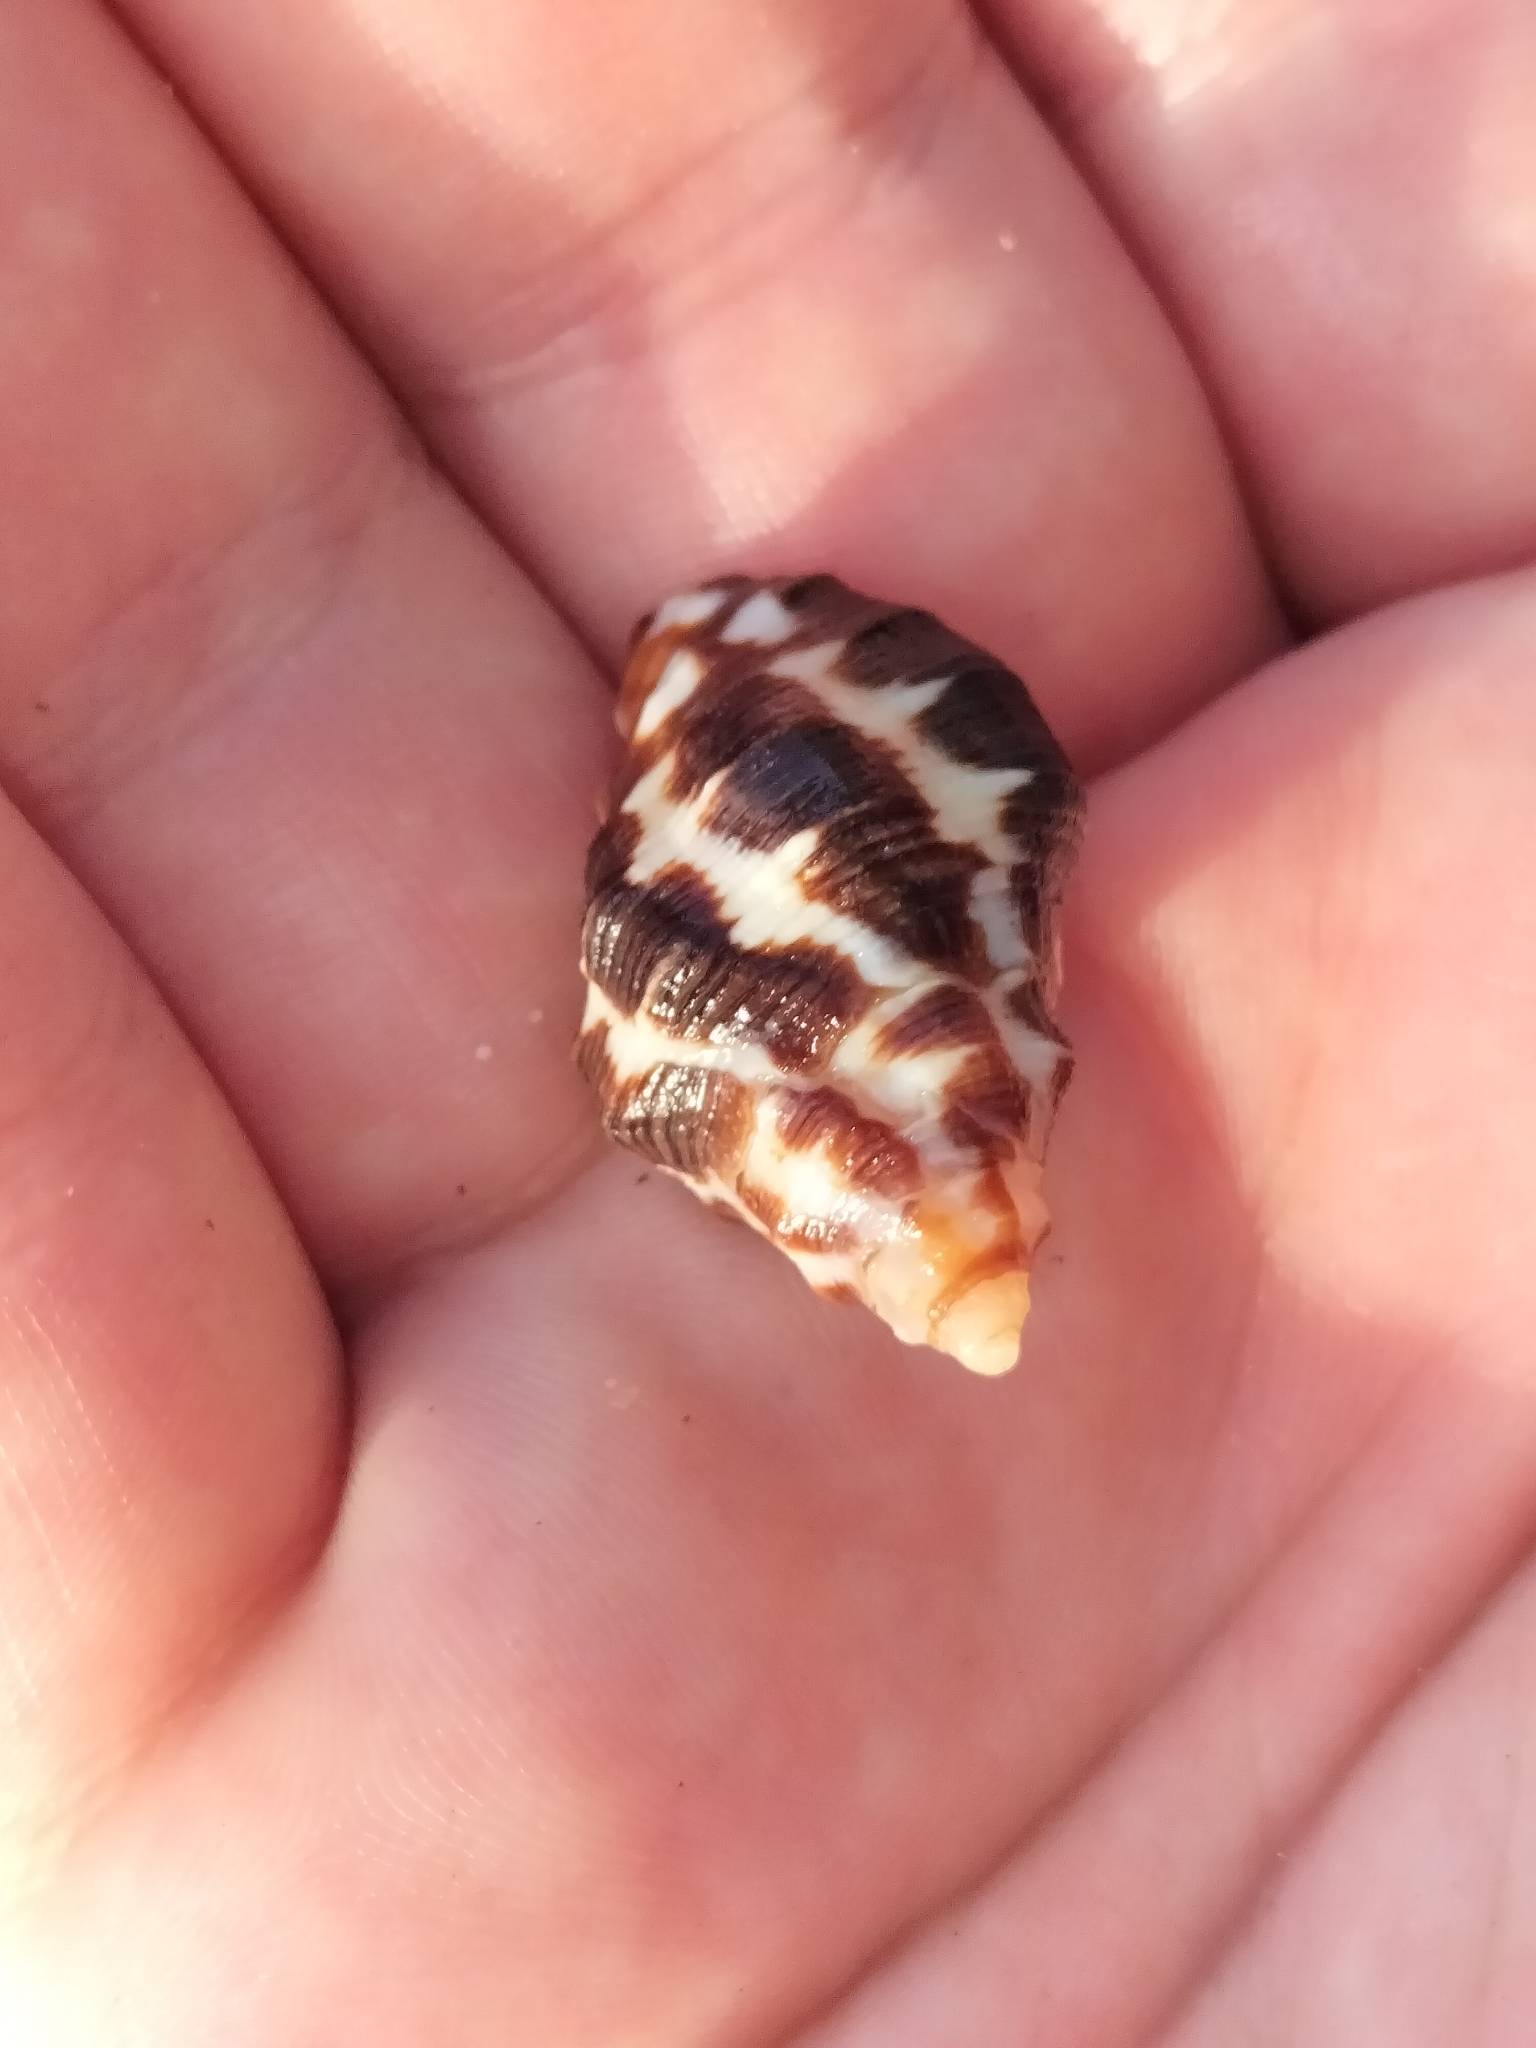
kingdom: Animalia
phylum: Mollusca
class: Gastropoda
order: Neogastropoda
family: Muricidae
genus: Reishia
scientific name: Reishia bitubercularis
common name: Bituberculate rock shell
